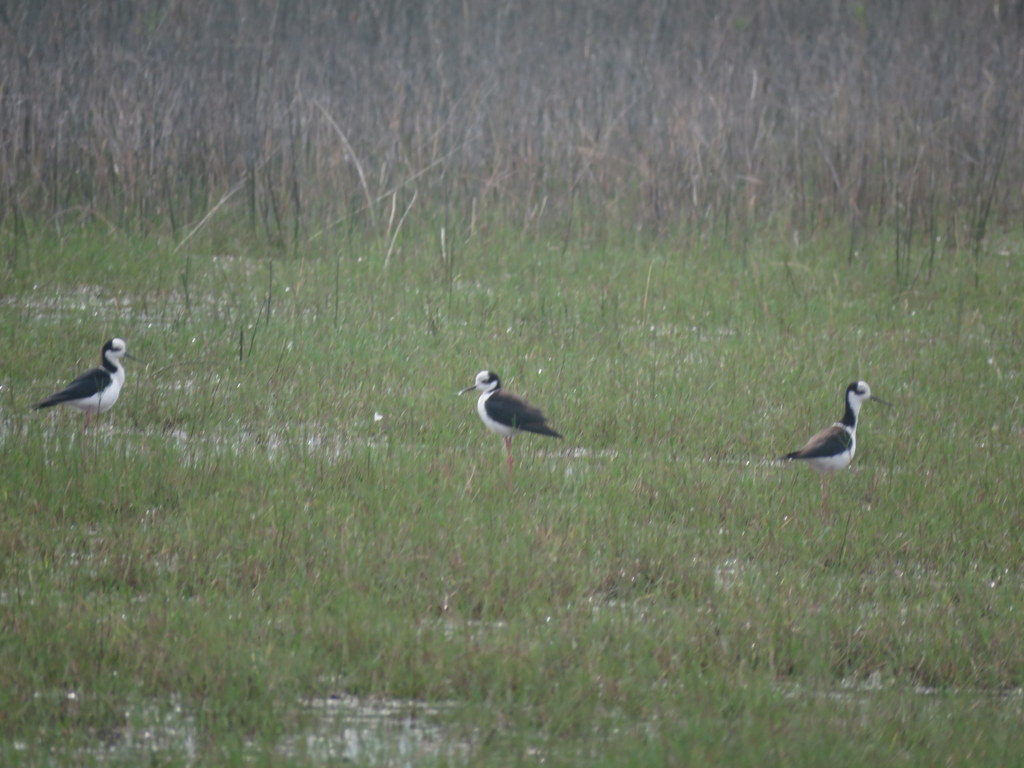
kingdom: Animalia
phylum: Chordata
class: Aves
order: Charadriiformes
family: Recurvirostridae
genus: Himantopus
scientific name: Himantopus mexicanus
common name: Black-necked stilt
